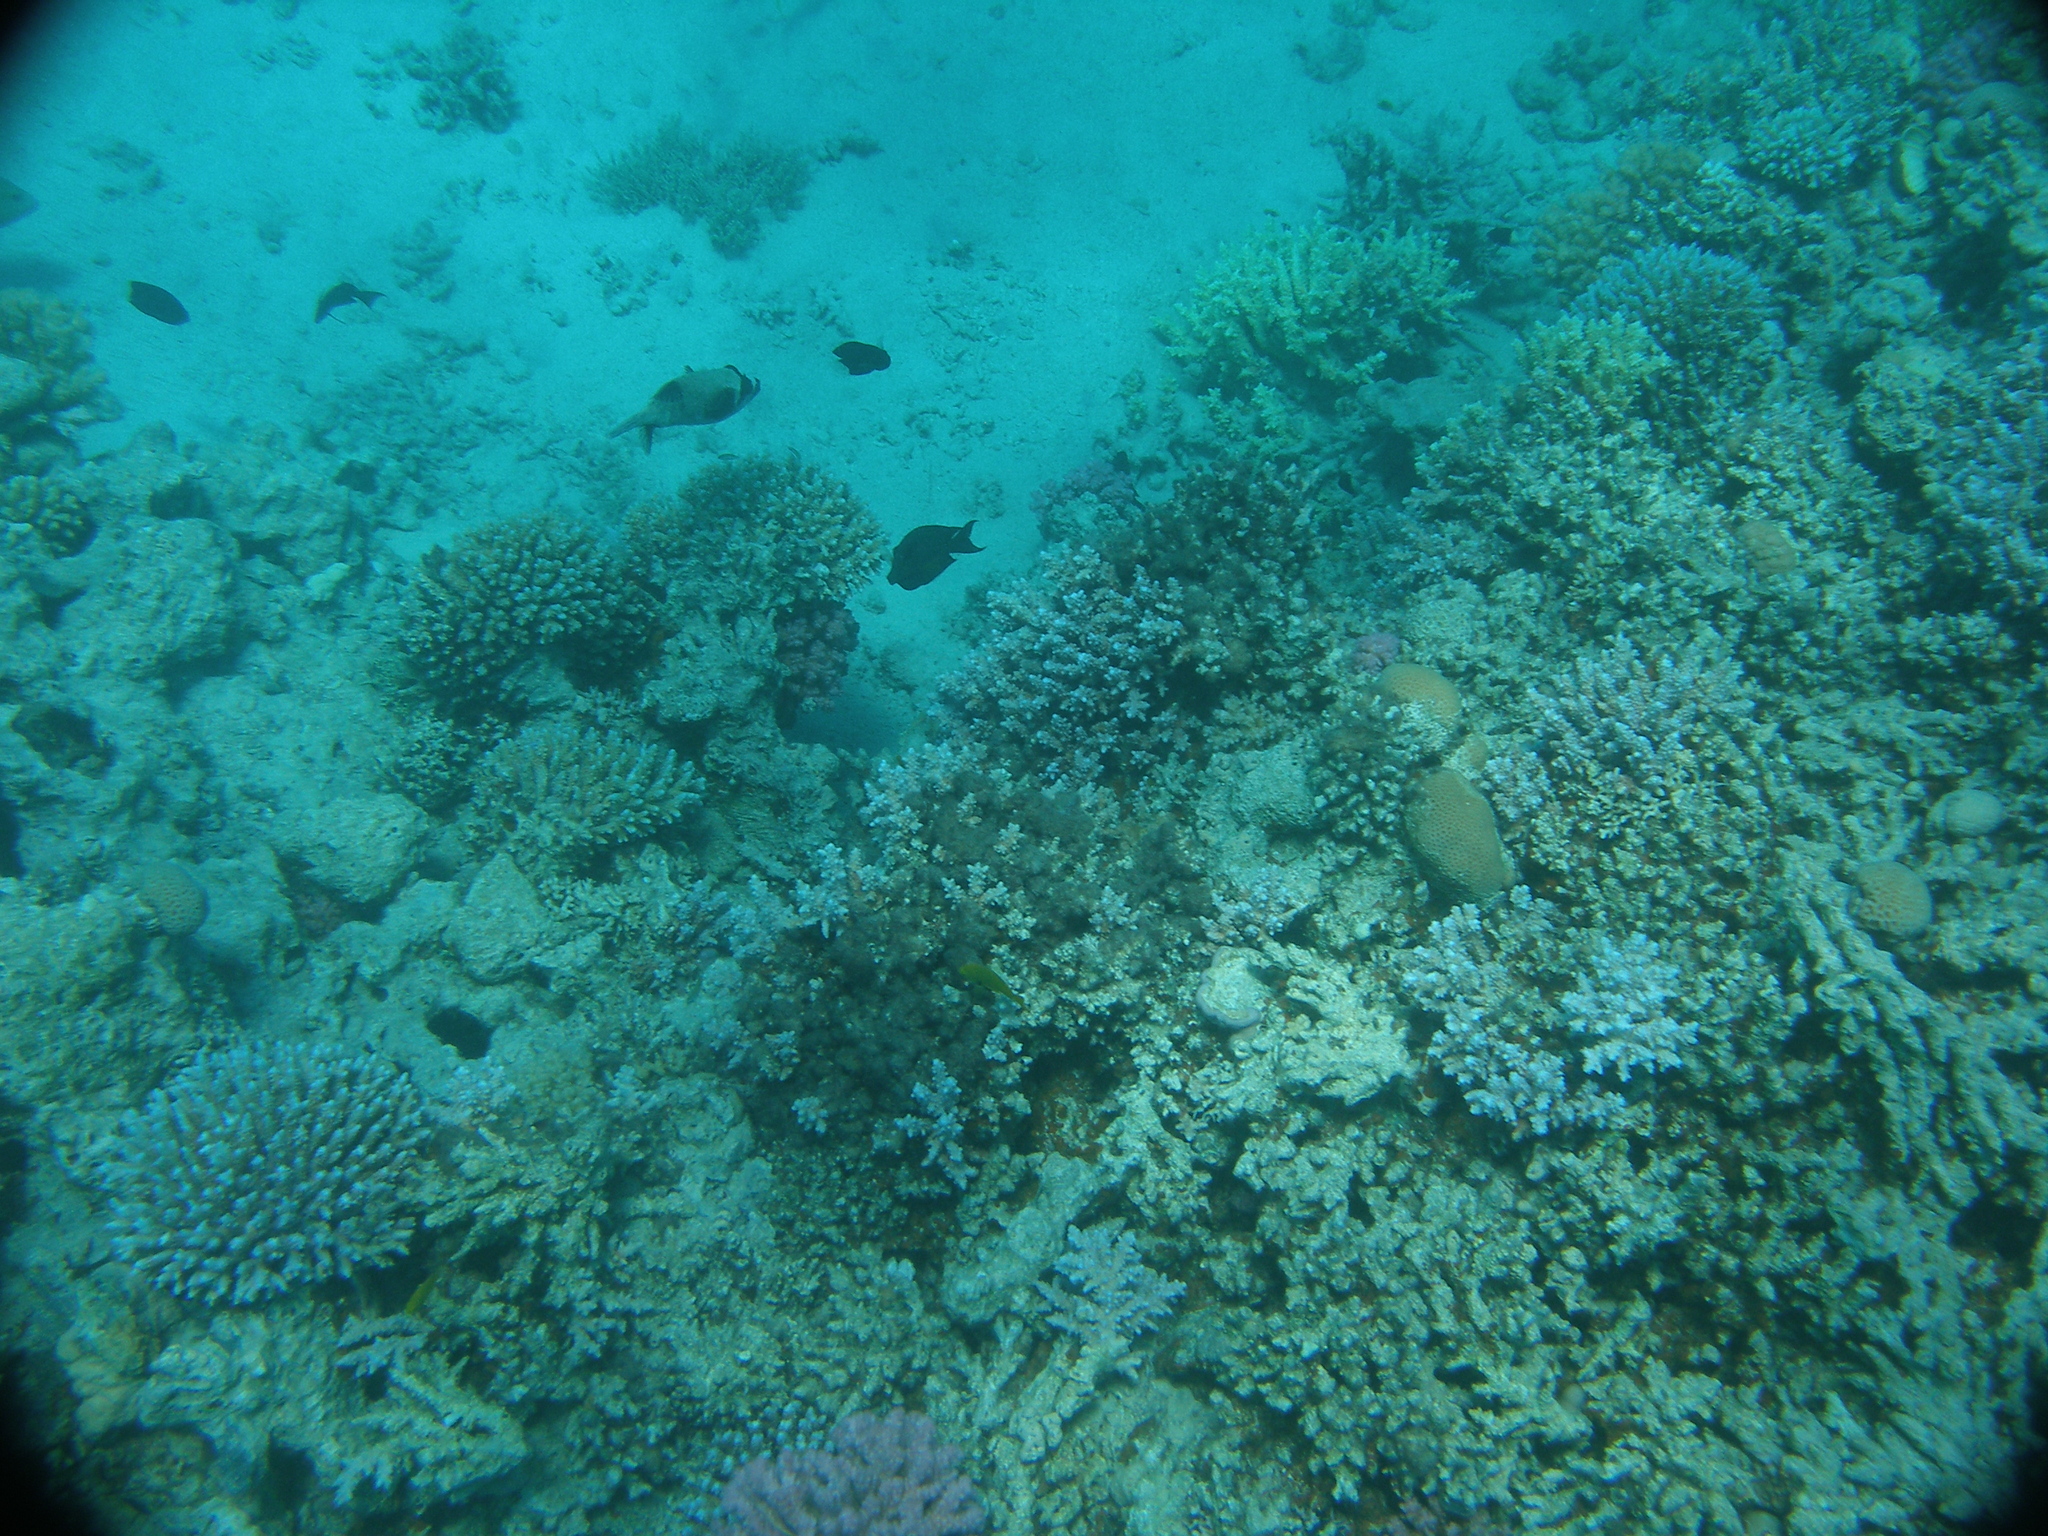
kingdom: Animalia
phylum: Chordata
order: Tetraodontiformes
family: Tetraodontidae
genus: Arothron
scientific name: Arothron diadematus
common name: Masked puffer
